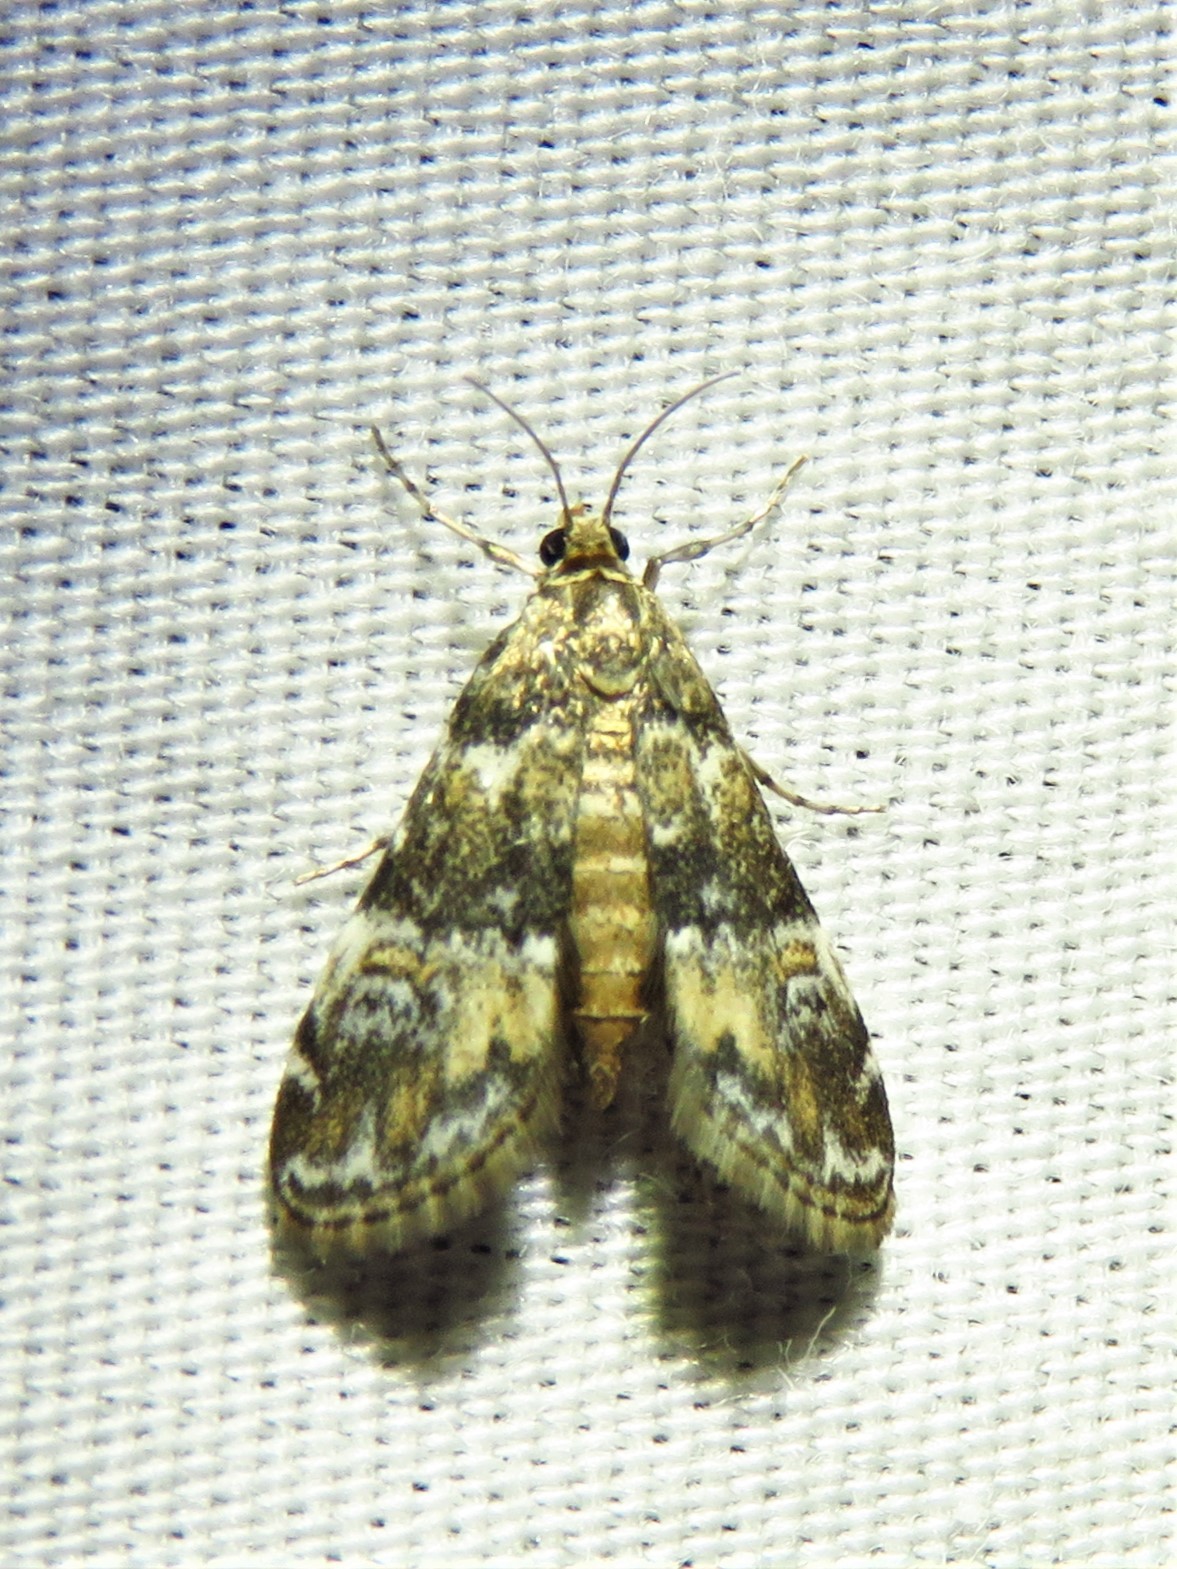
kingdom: Animalia
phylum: Arthropoda
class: Insecta
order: Lepidoptera
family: Crambidae
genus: Elophila
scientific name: Elophila obliteralis
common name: Waterlily leafcutter moth
